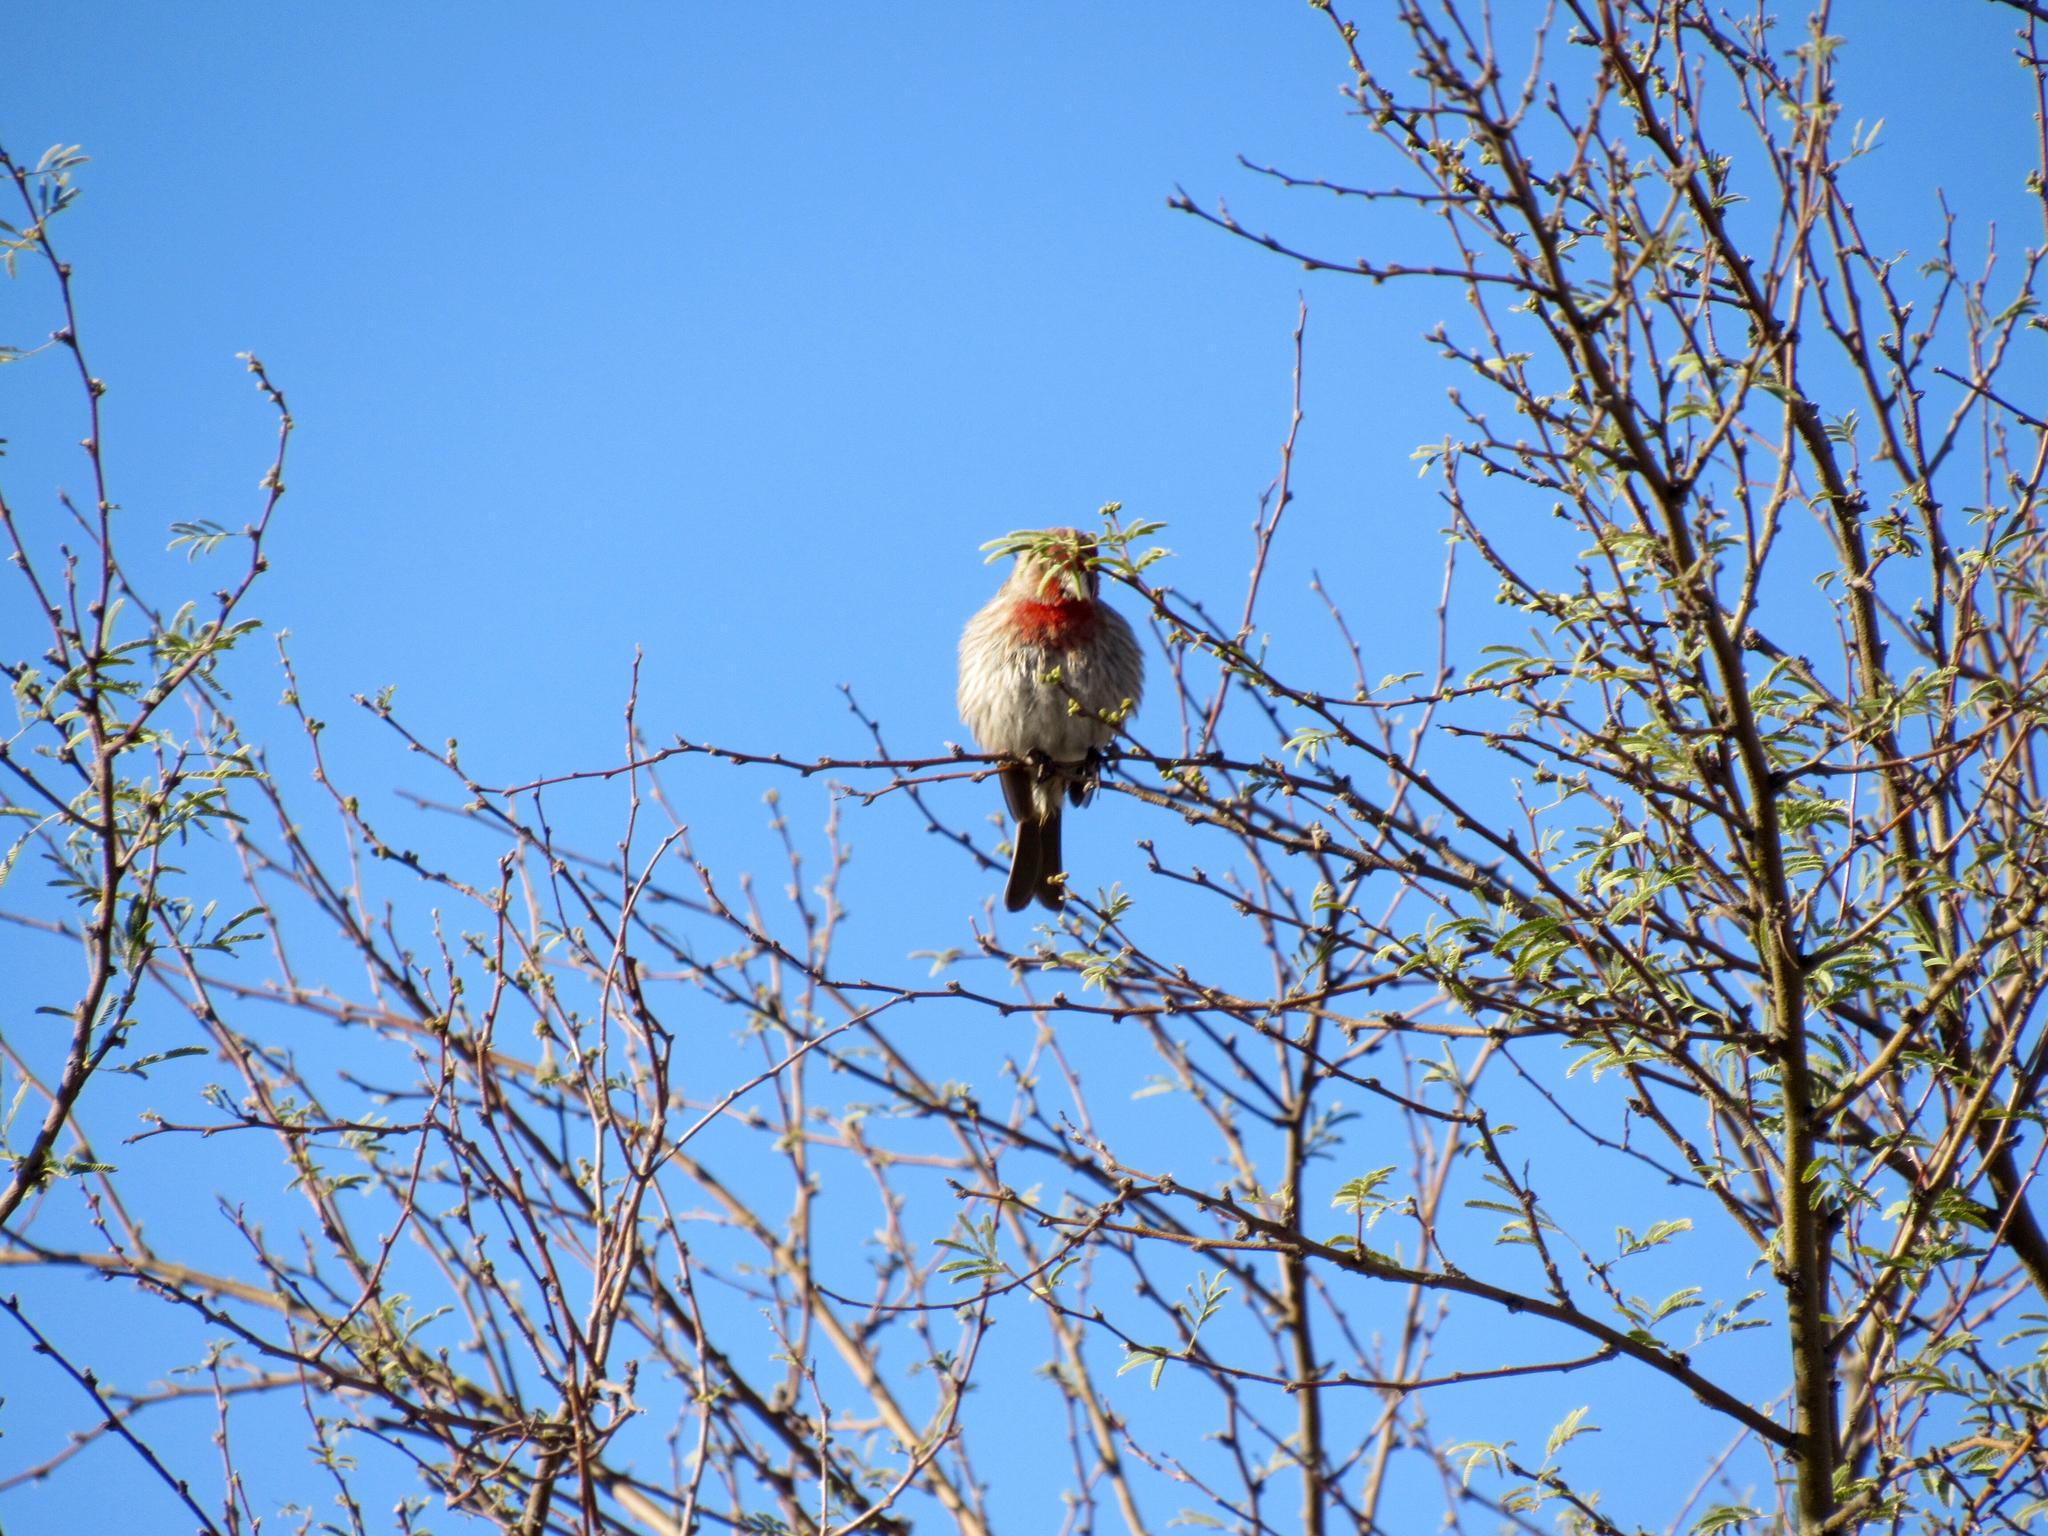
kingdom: Animalia
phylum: Chordata
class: Aves
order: Passeriformes
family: Fringillidae
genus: Haemorhous
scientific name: Haemorhous mexicanus
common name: House finch
